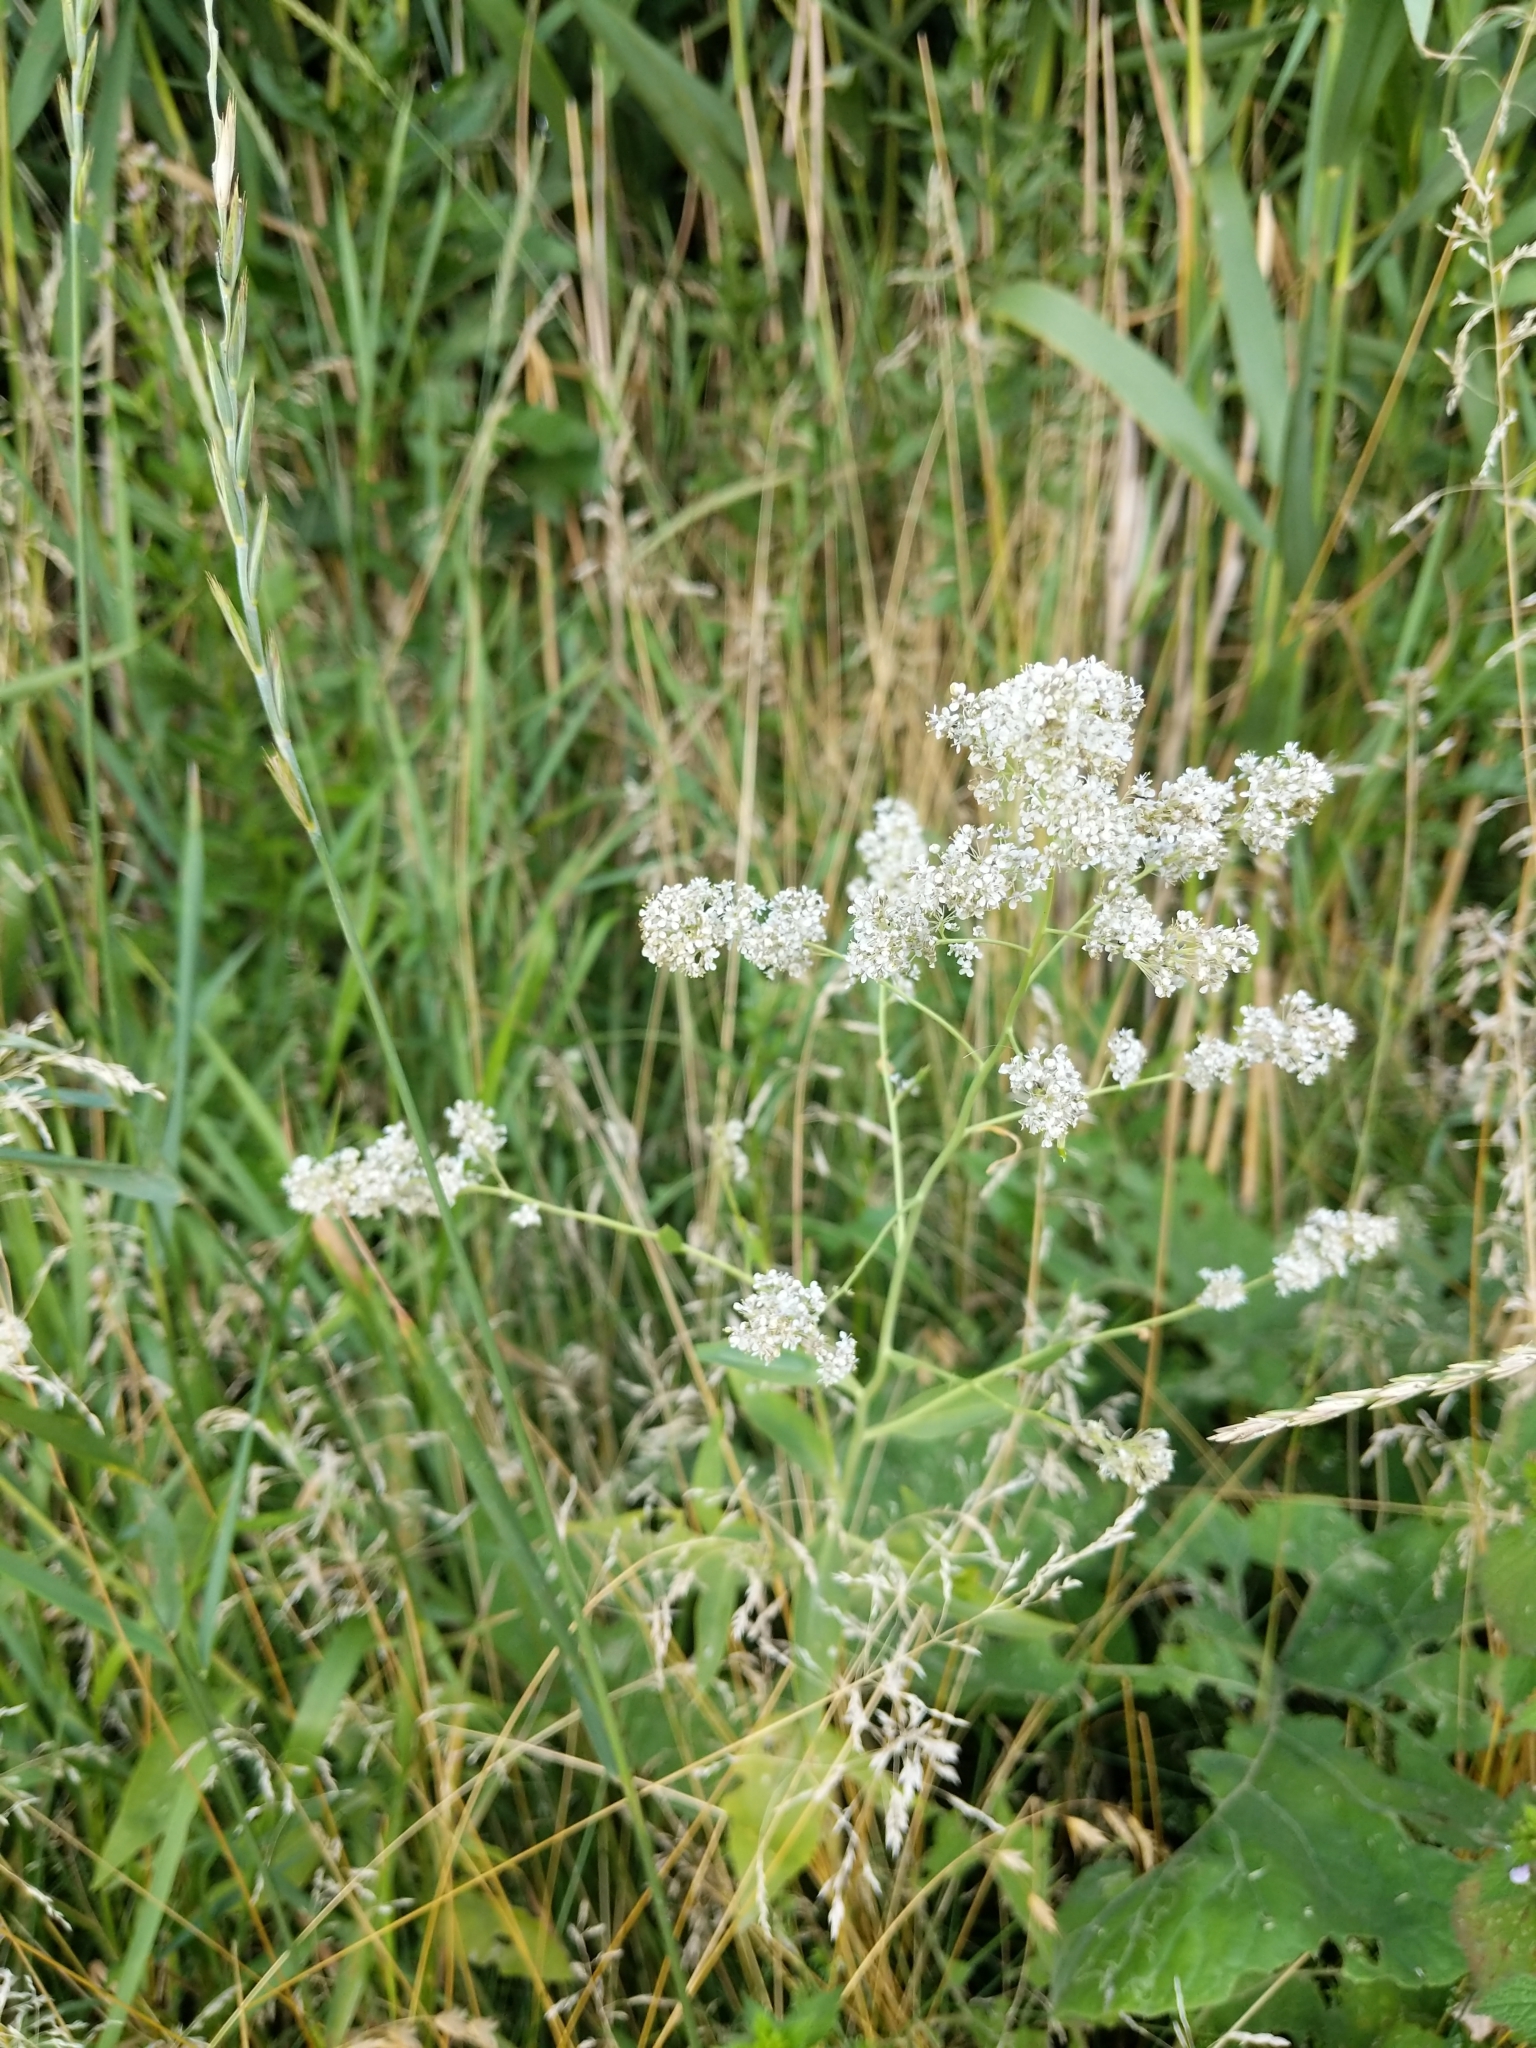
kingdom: Plantae
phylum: Tracheophyta
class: Magnoliopsida
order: Brassicales
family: Brassicaceae
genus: Lepidium
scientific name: Lepidium latifolium
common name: Dittander
